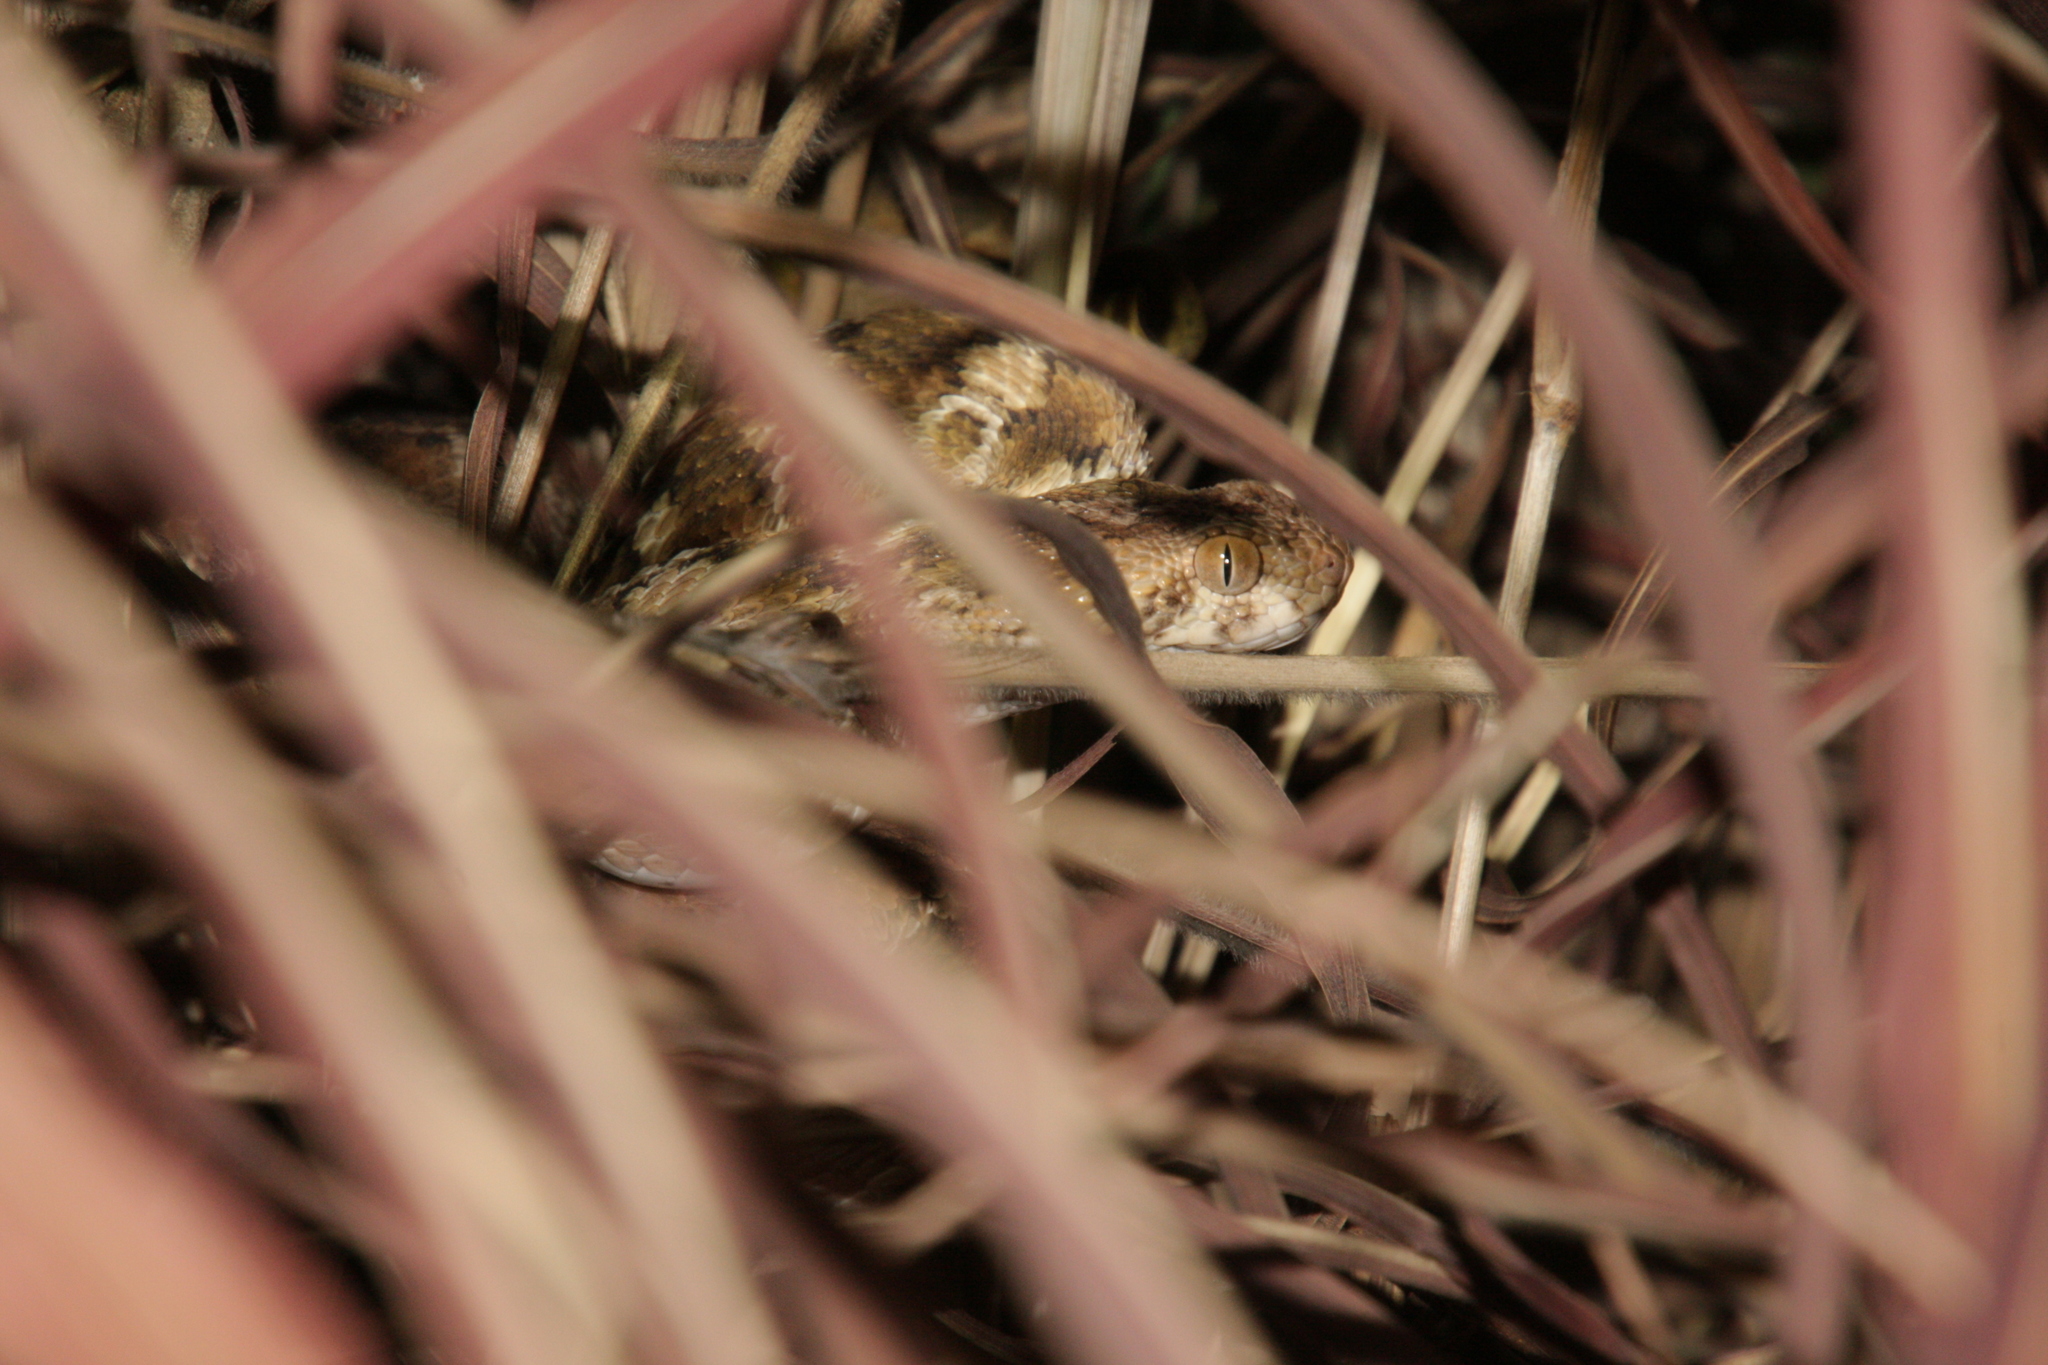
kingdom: Animalia
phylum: Chordata
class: Squamata
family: Viperidae
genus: Echis
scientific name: Echis leucogaster
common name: White-bellied carpet viper
